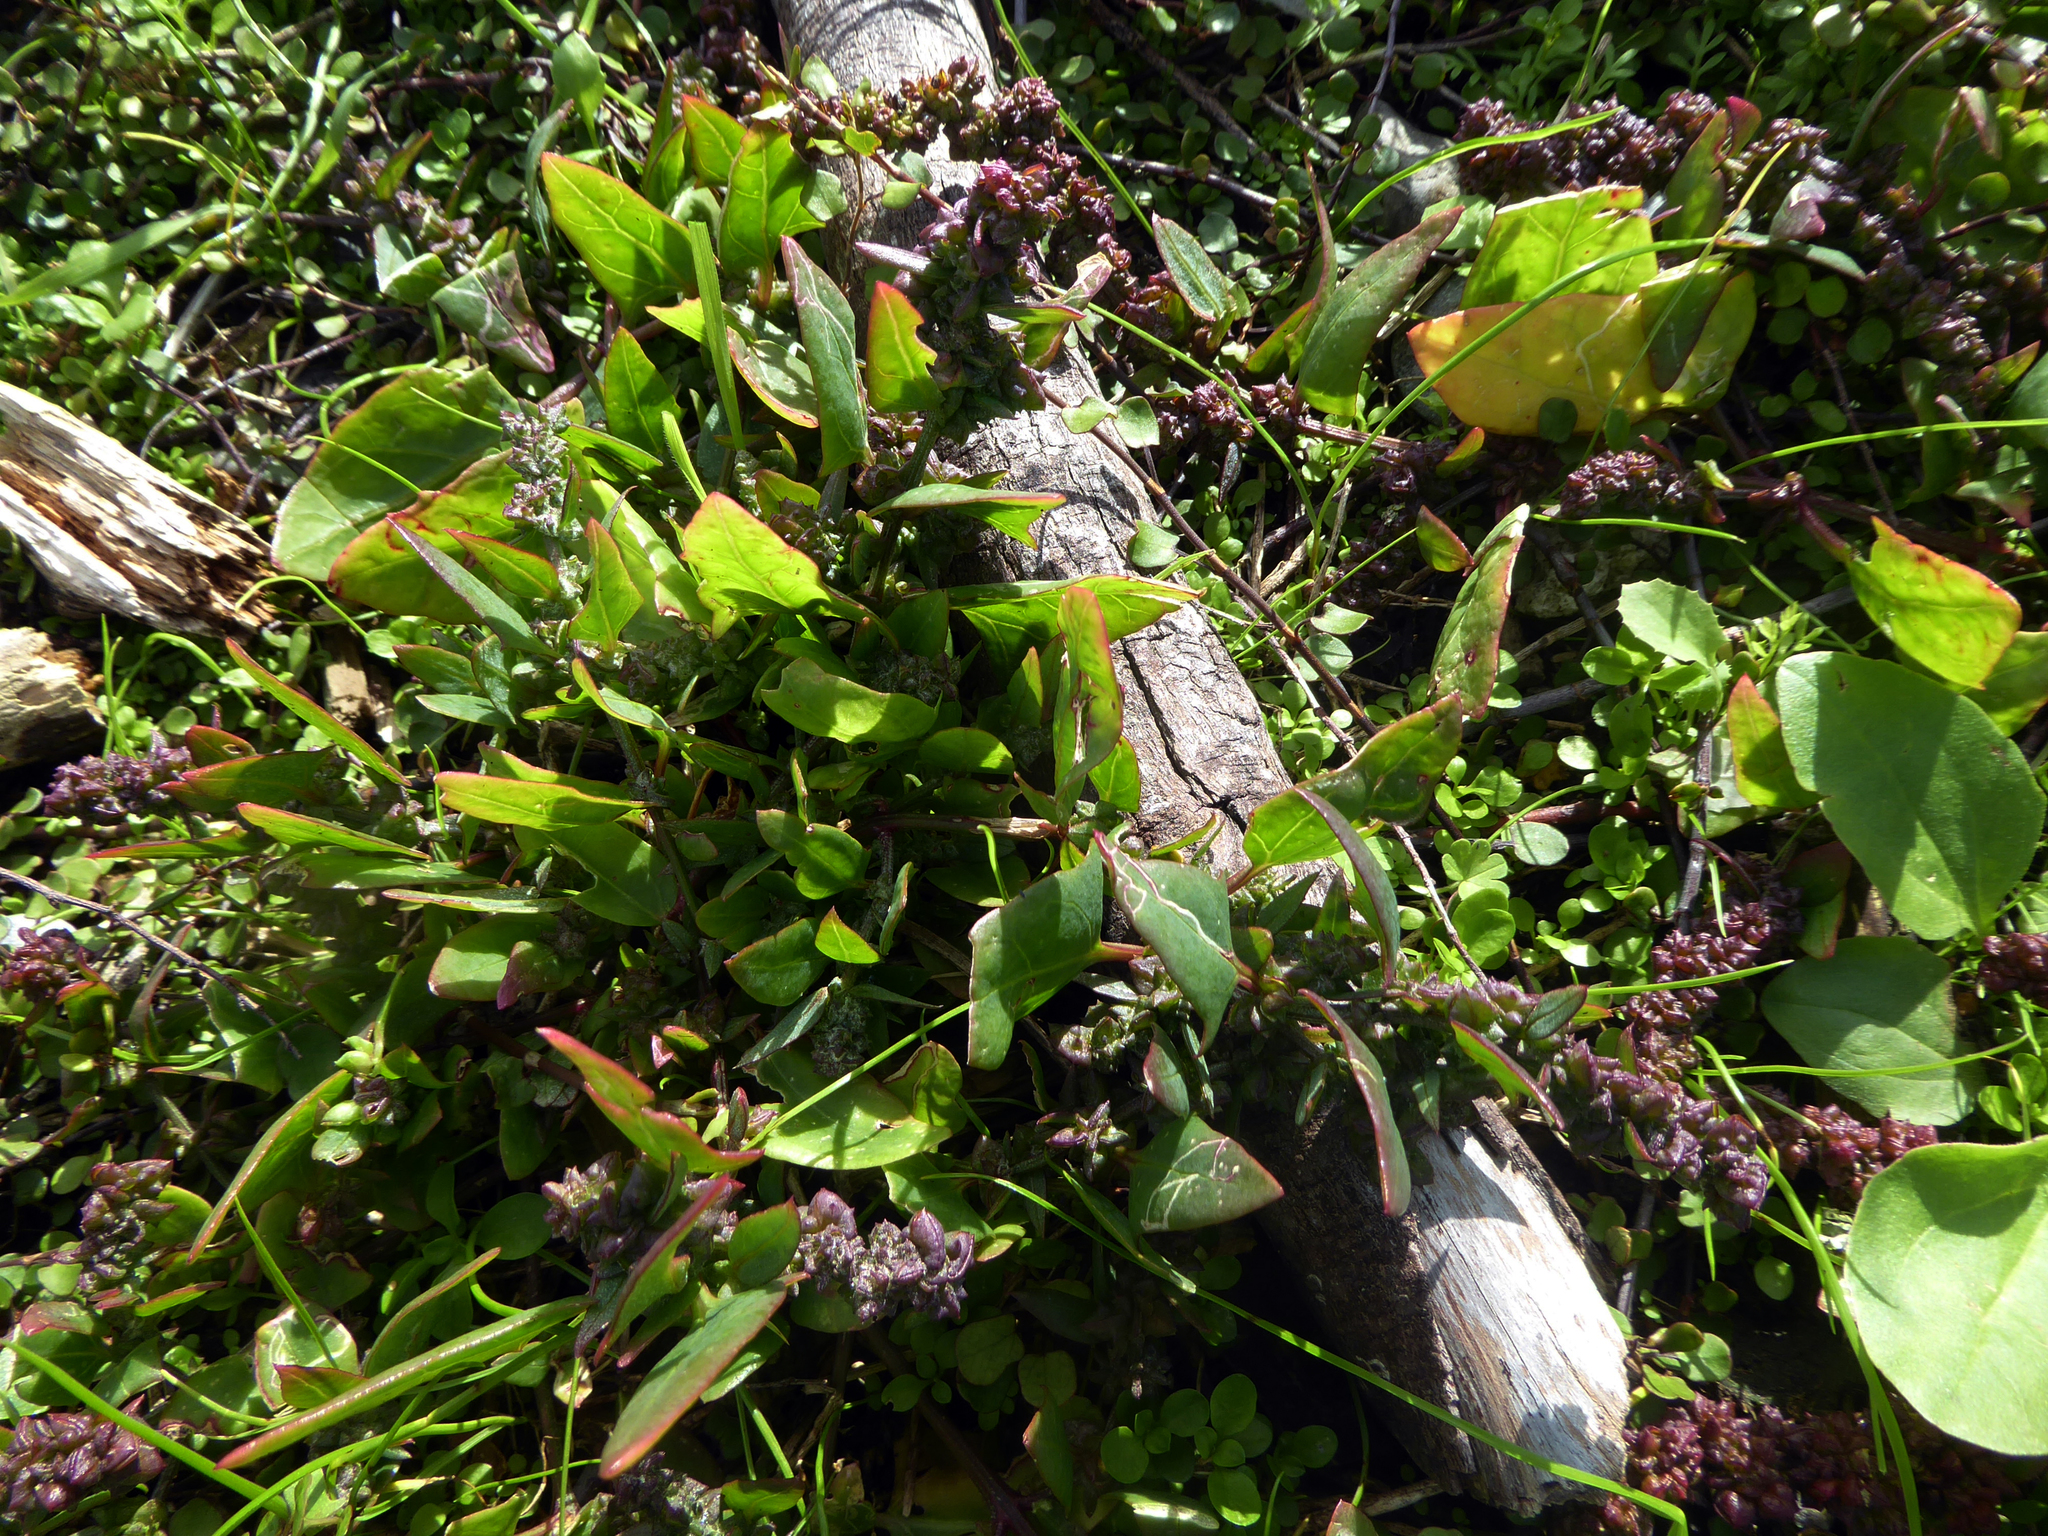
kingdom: Plantae
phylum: Tracheophyta
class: Magnoliopsida
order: Caryophyllales
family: Amaranthaceae
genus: Atriplex
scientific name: Atriplex prostrata
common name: Spear-leaved orache
